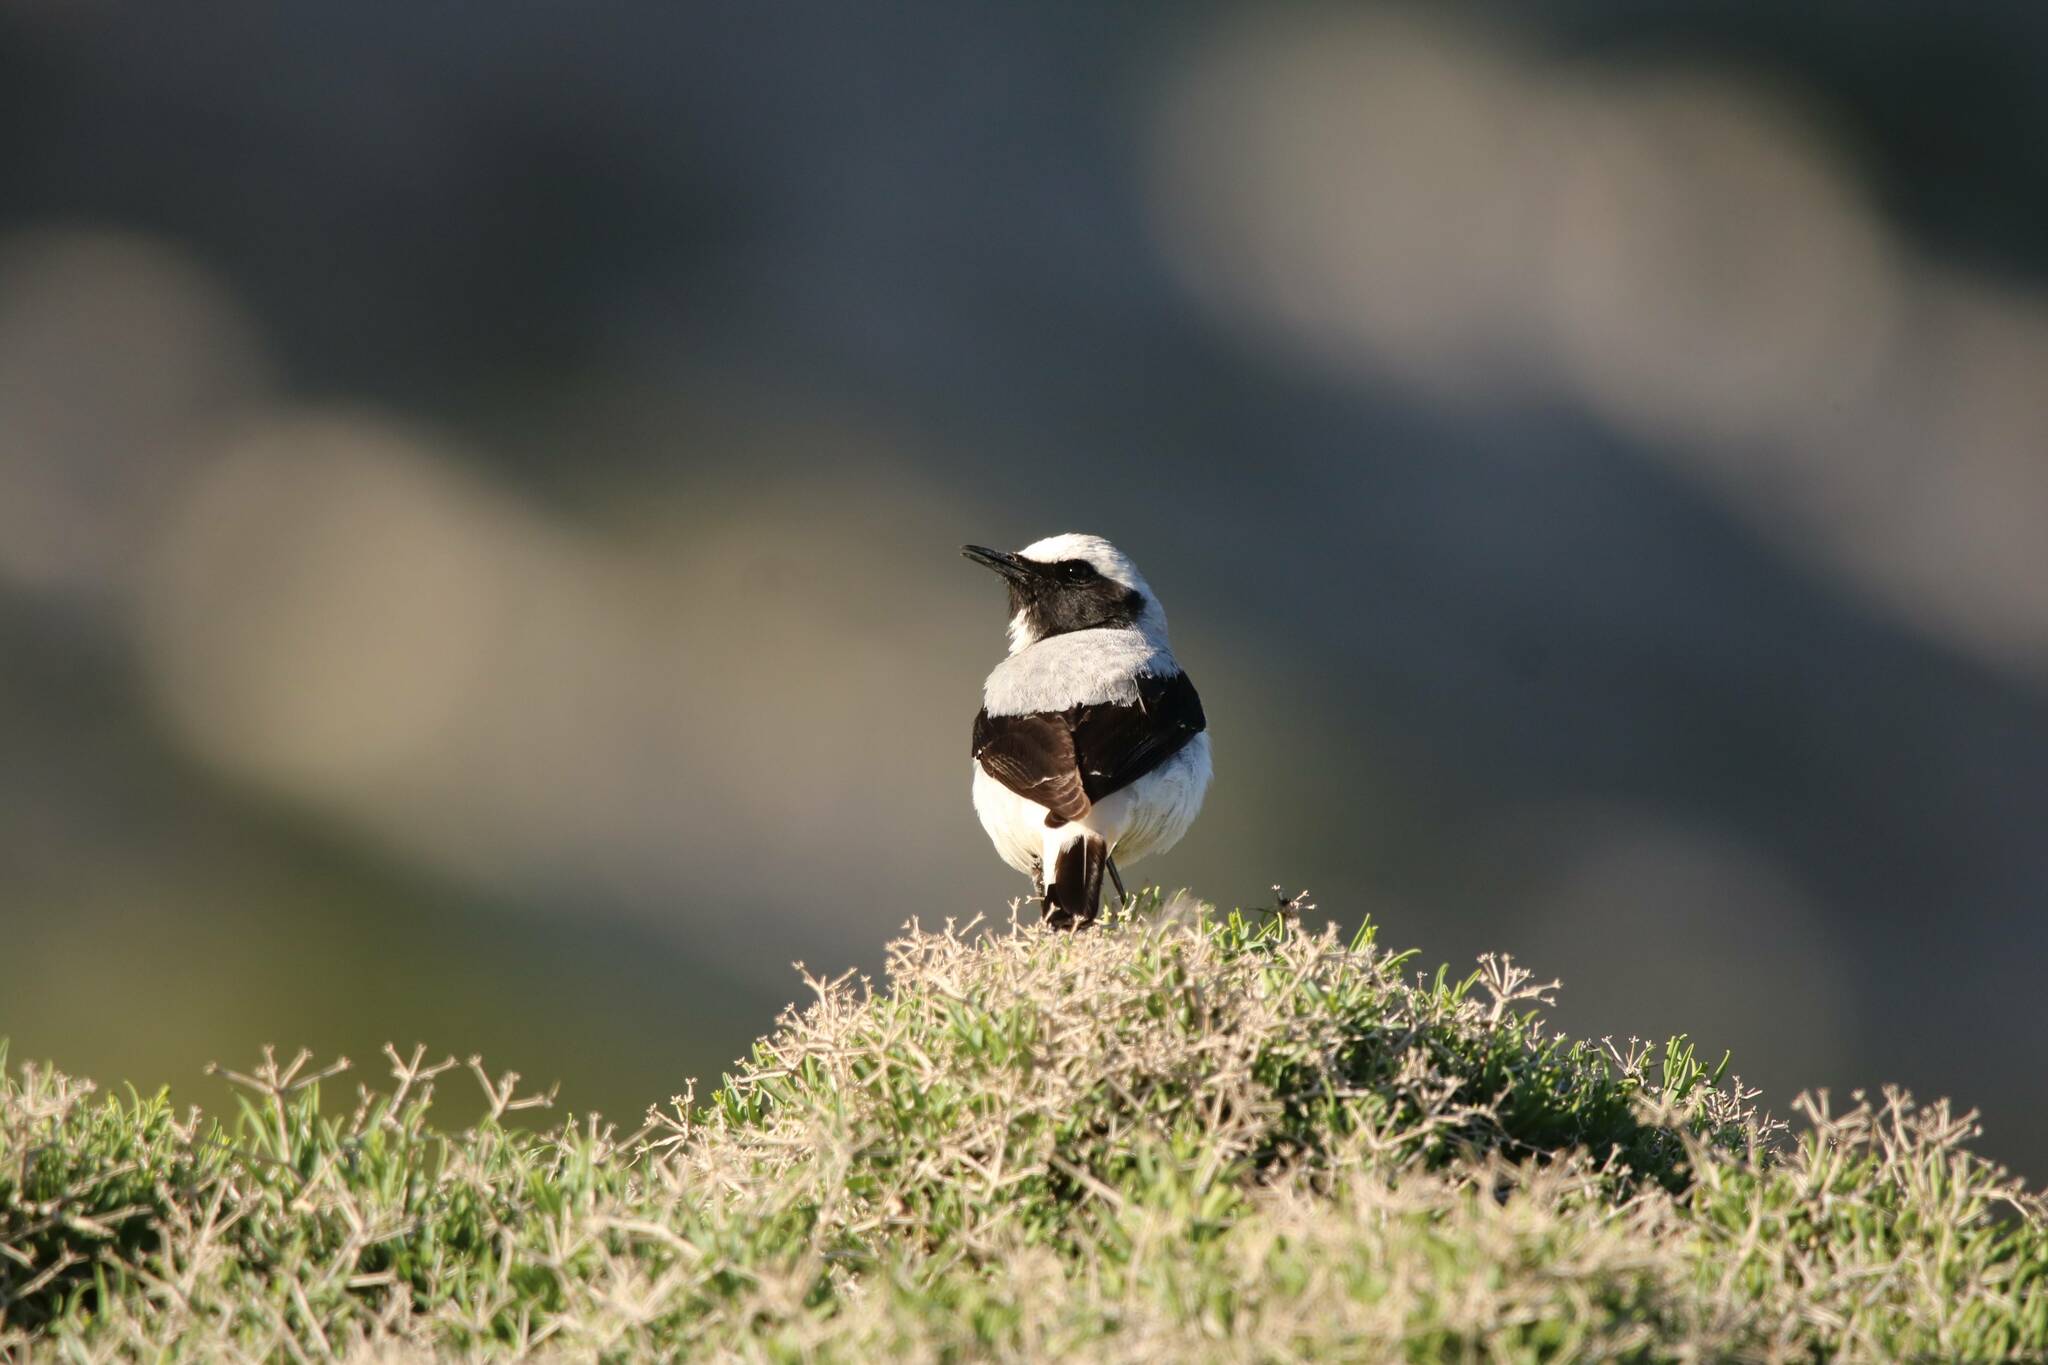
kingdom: Animalia
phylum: Chordata
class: Aves
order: Passeriformes
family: Muscicapidae
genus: Oenanthe
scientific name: Oenanthe oenanthe
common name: Northern wheatear
